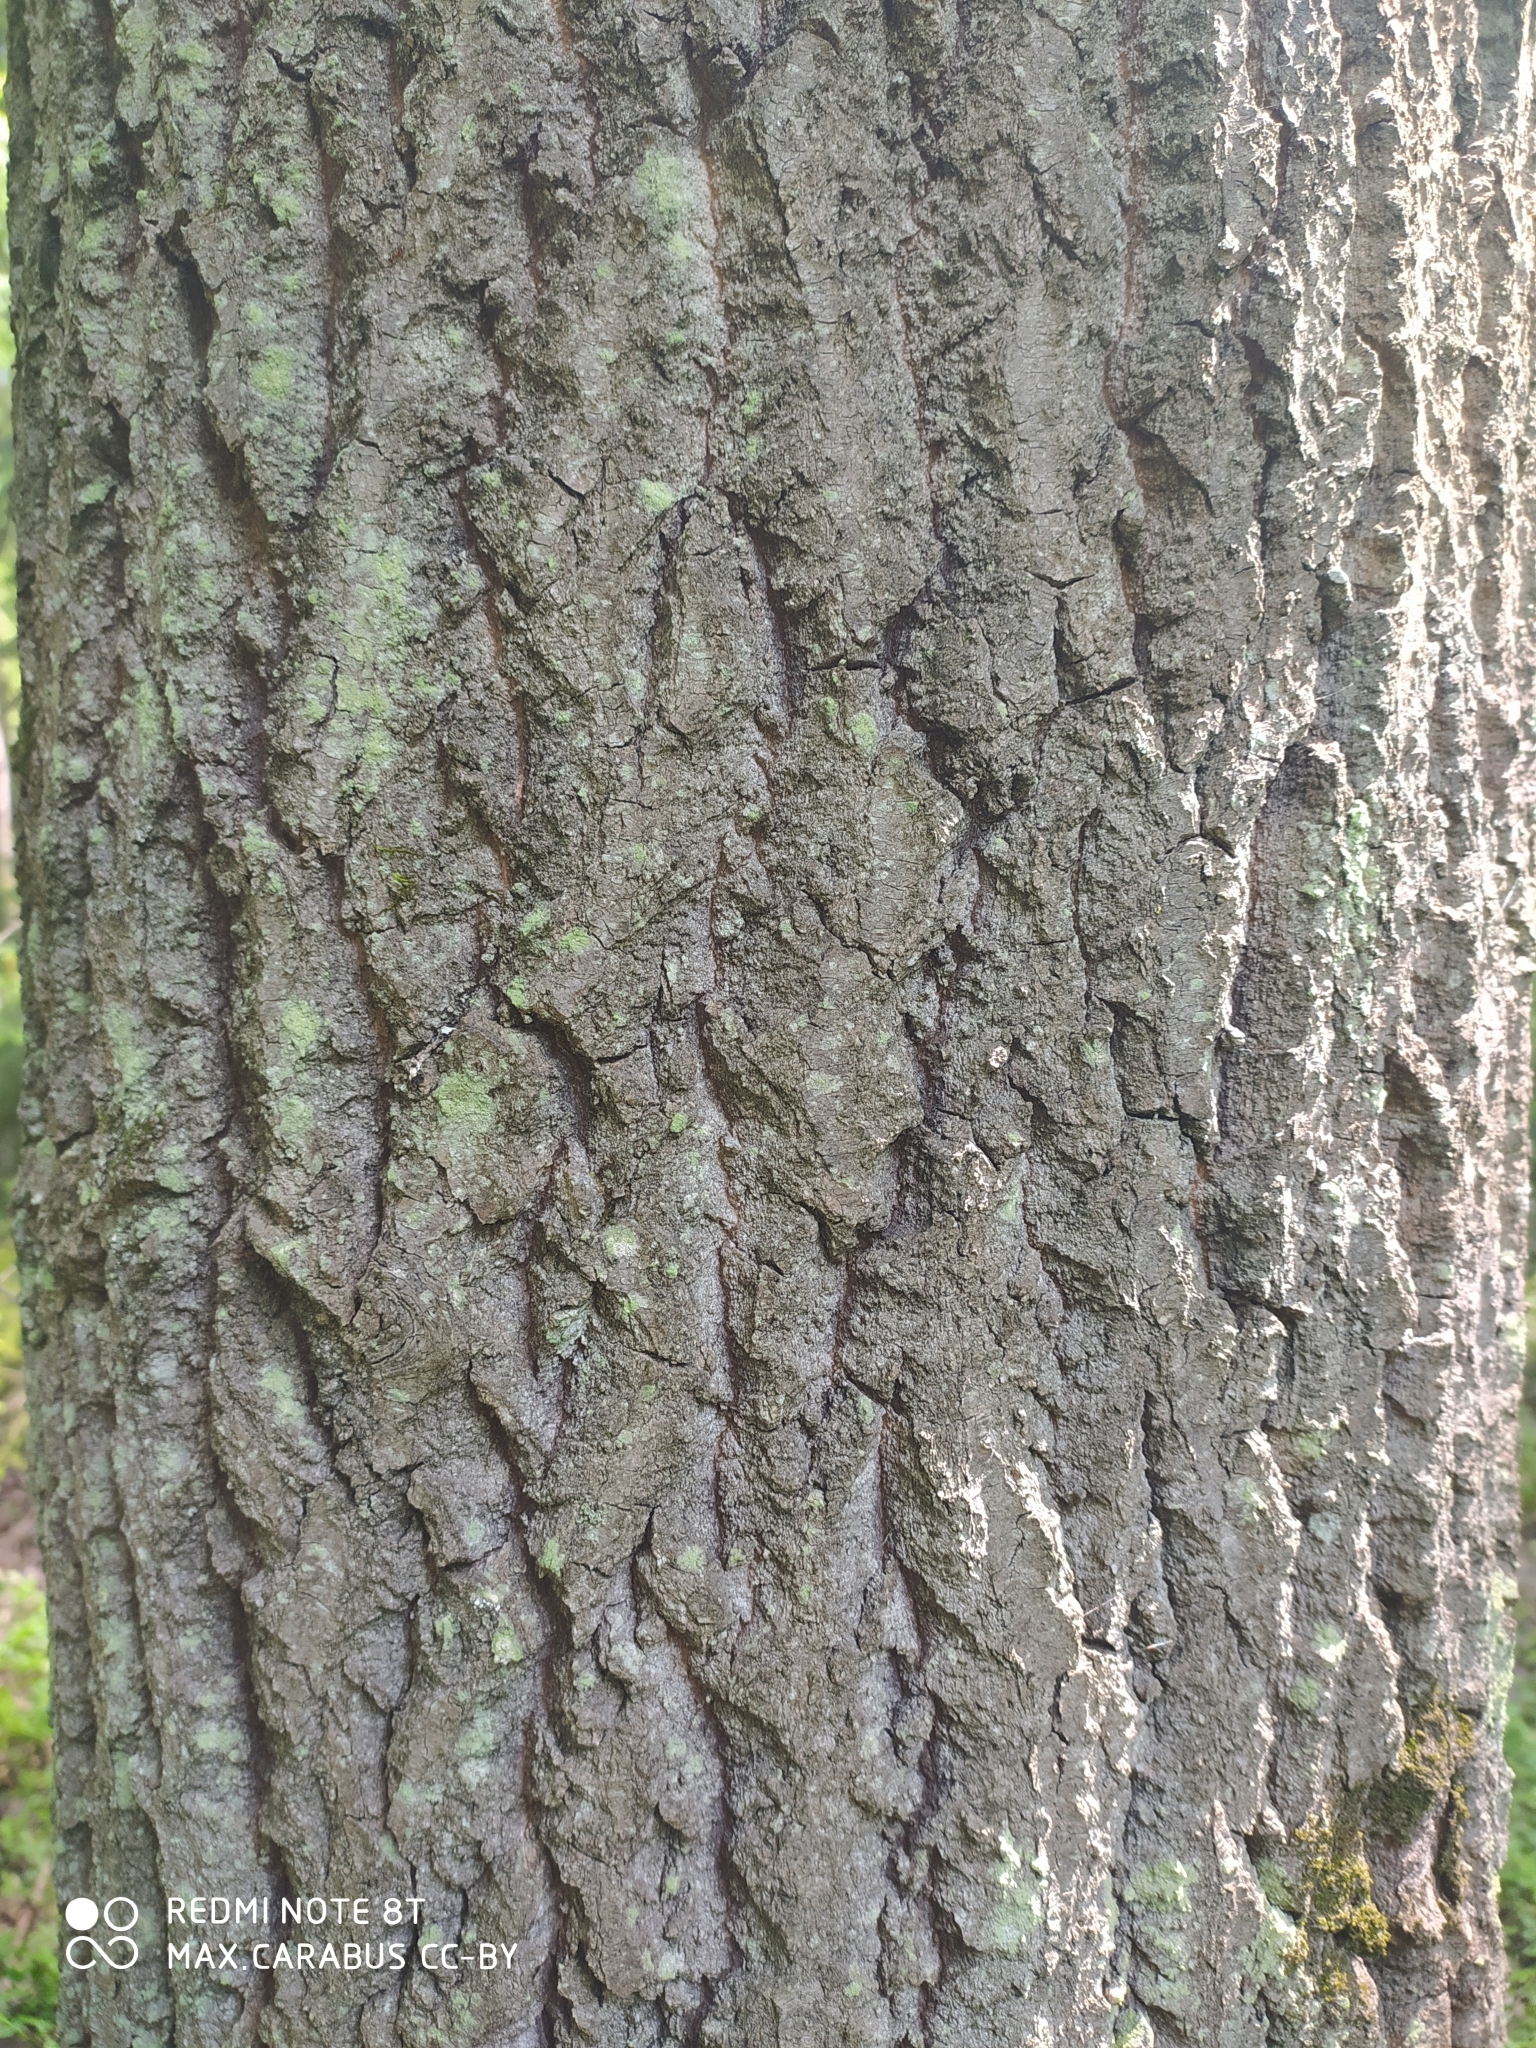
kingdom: Plantae
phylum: Tracheophyta
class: Magnoliopsida
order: Malpighiales
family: Salicaceae
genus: Populus
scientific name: Populus tremula
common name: European aspen
